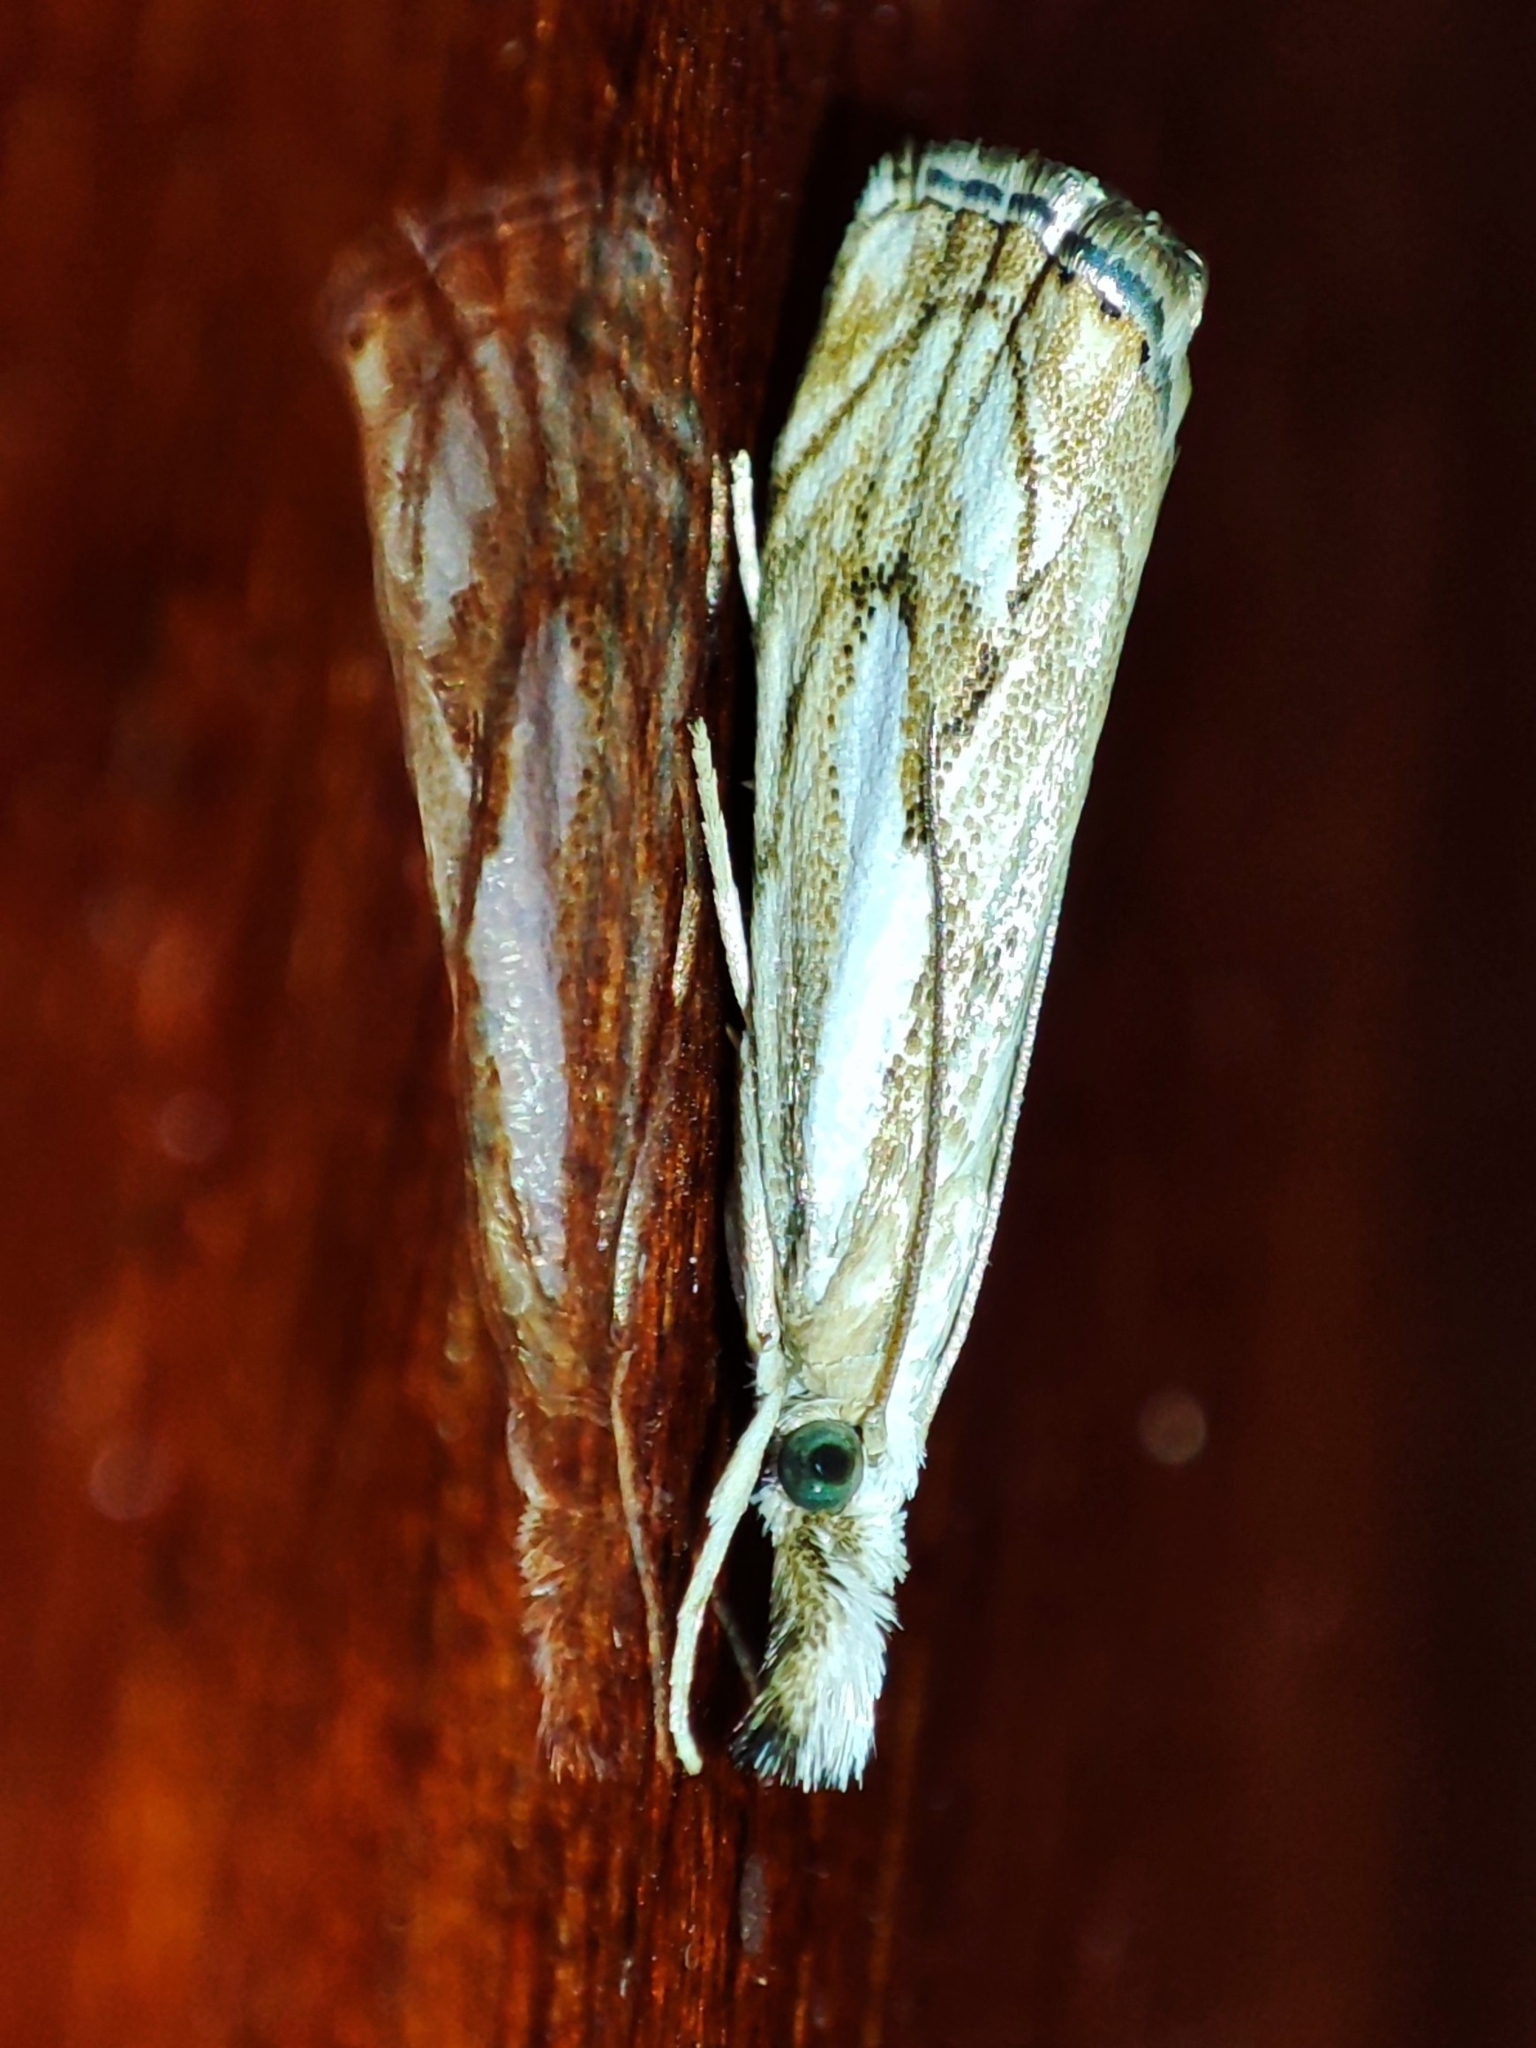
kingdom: Animalia
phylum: Arthropoda
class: Insecta
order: Lepidoptera
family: Crambidae
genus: Catoptria
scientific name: Catoptria falsella
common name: Chequered grass-veneer
